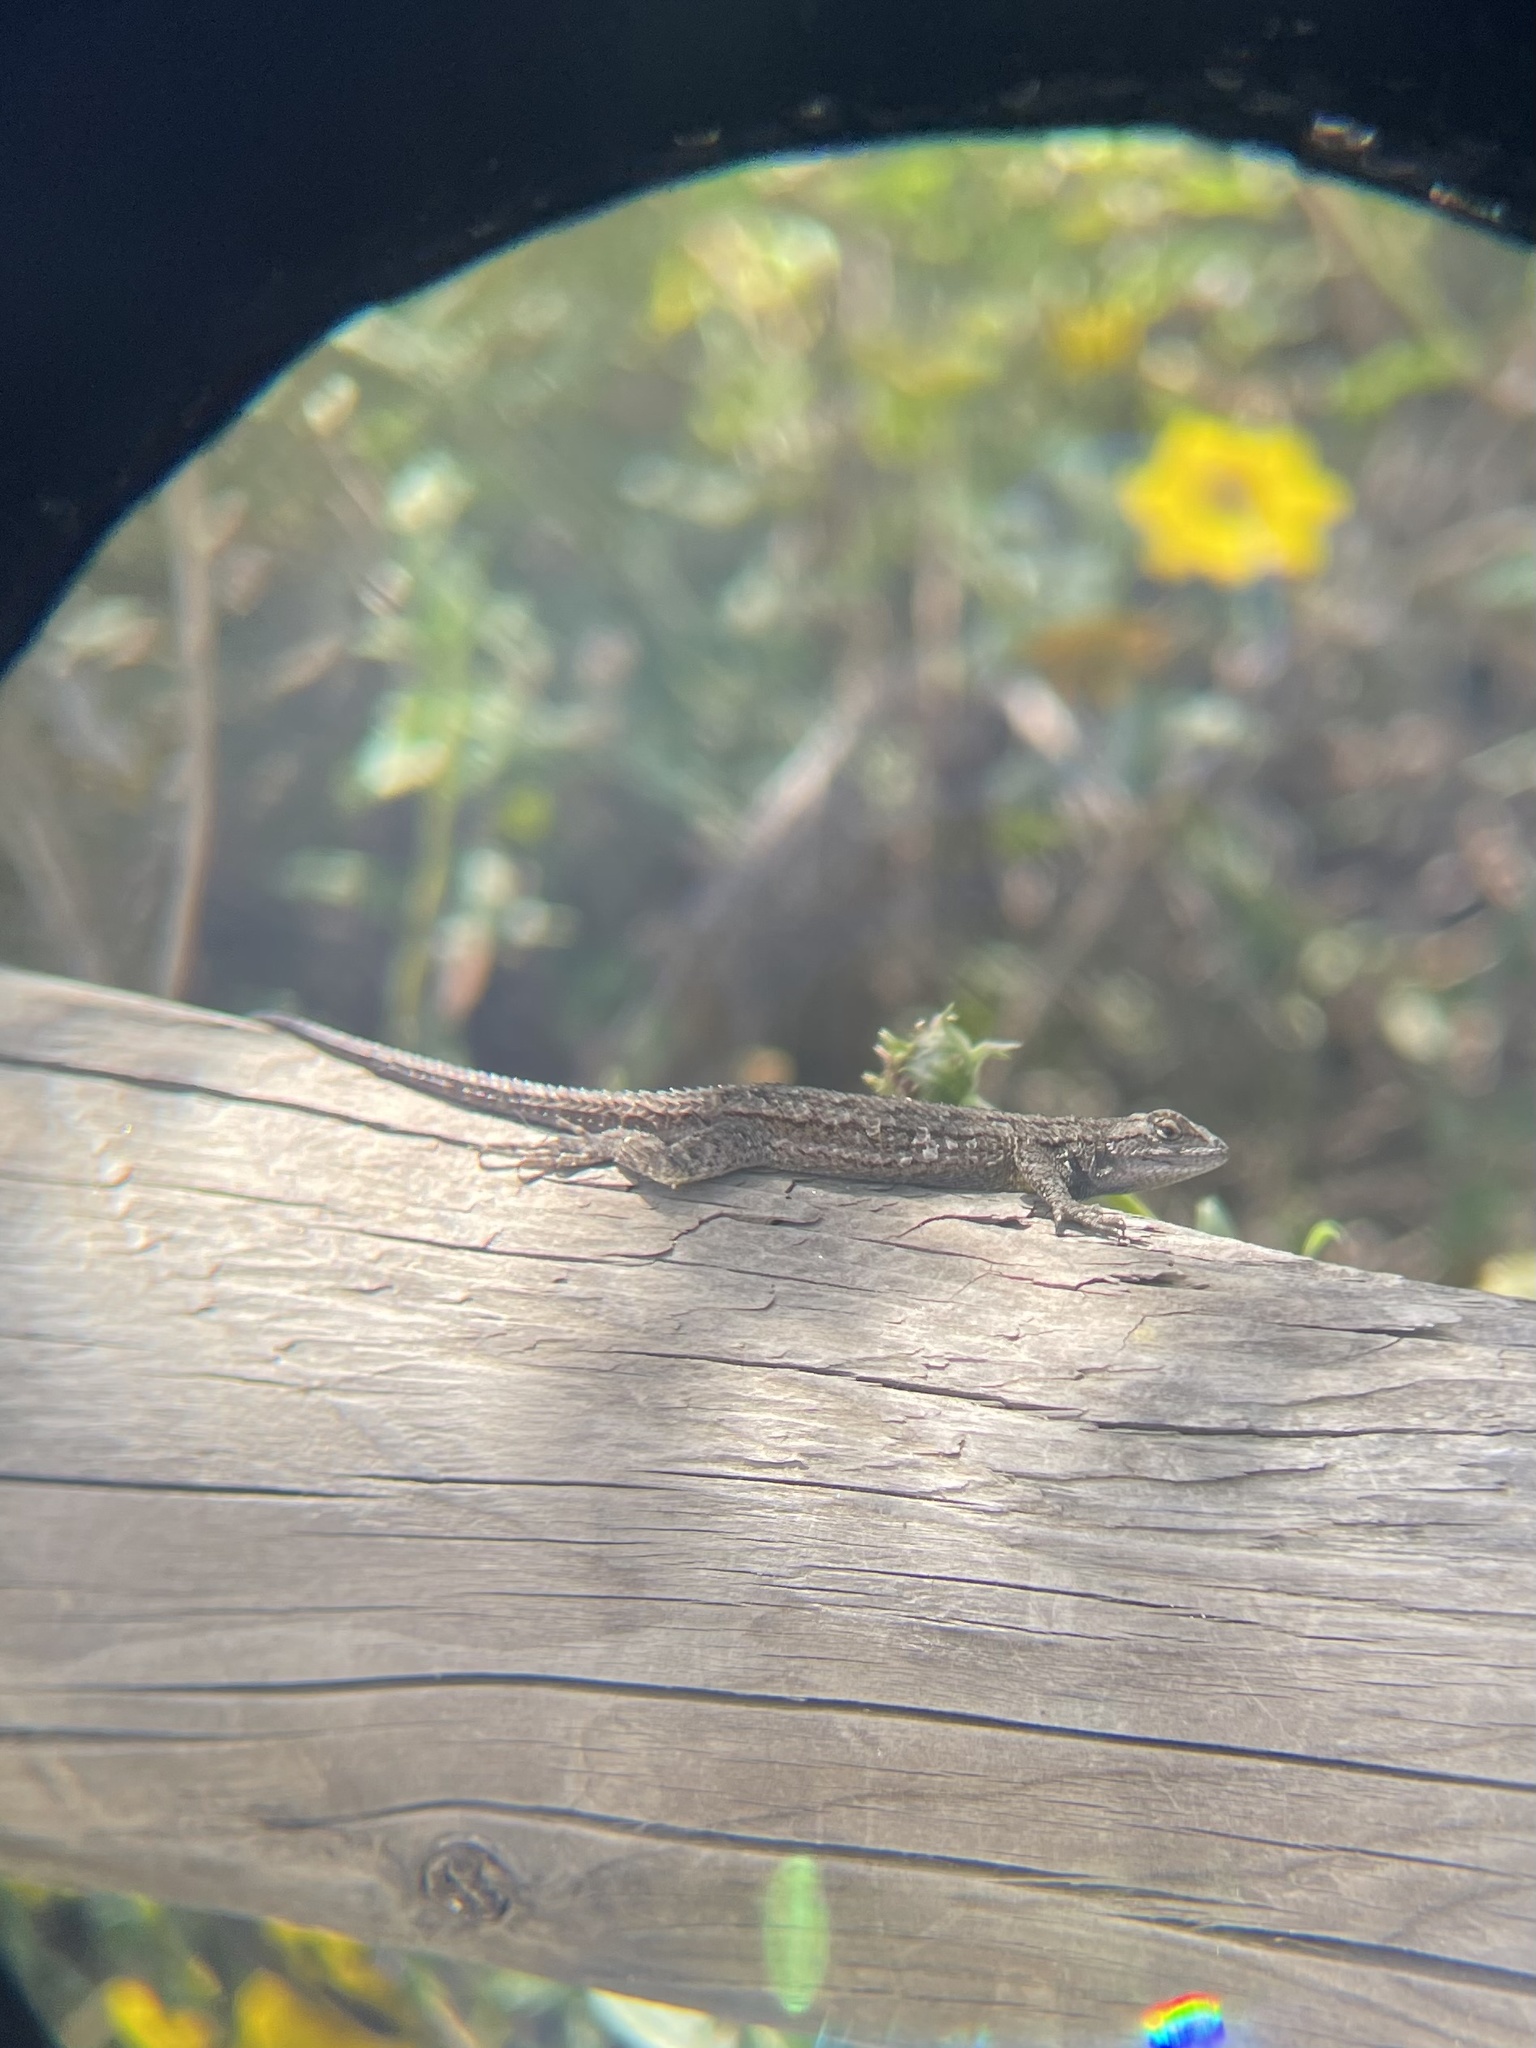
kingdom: Animalia
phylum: Chordata
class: Squamata
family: Phrynosomatidae
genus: Sceloporus
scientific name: Sceloporus occidentalis
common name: Western fence lizard
